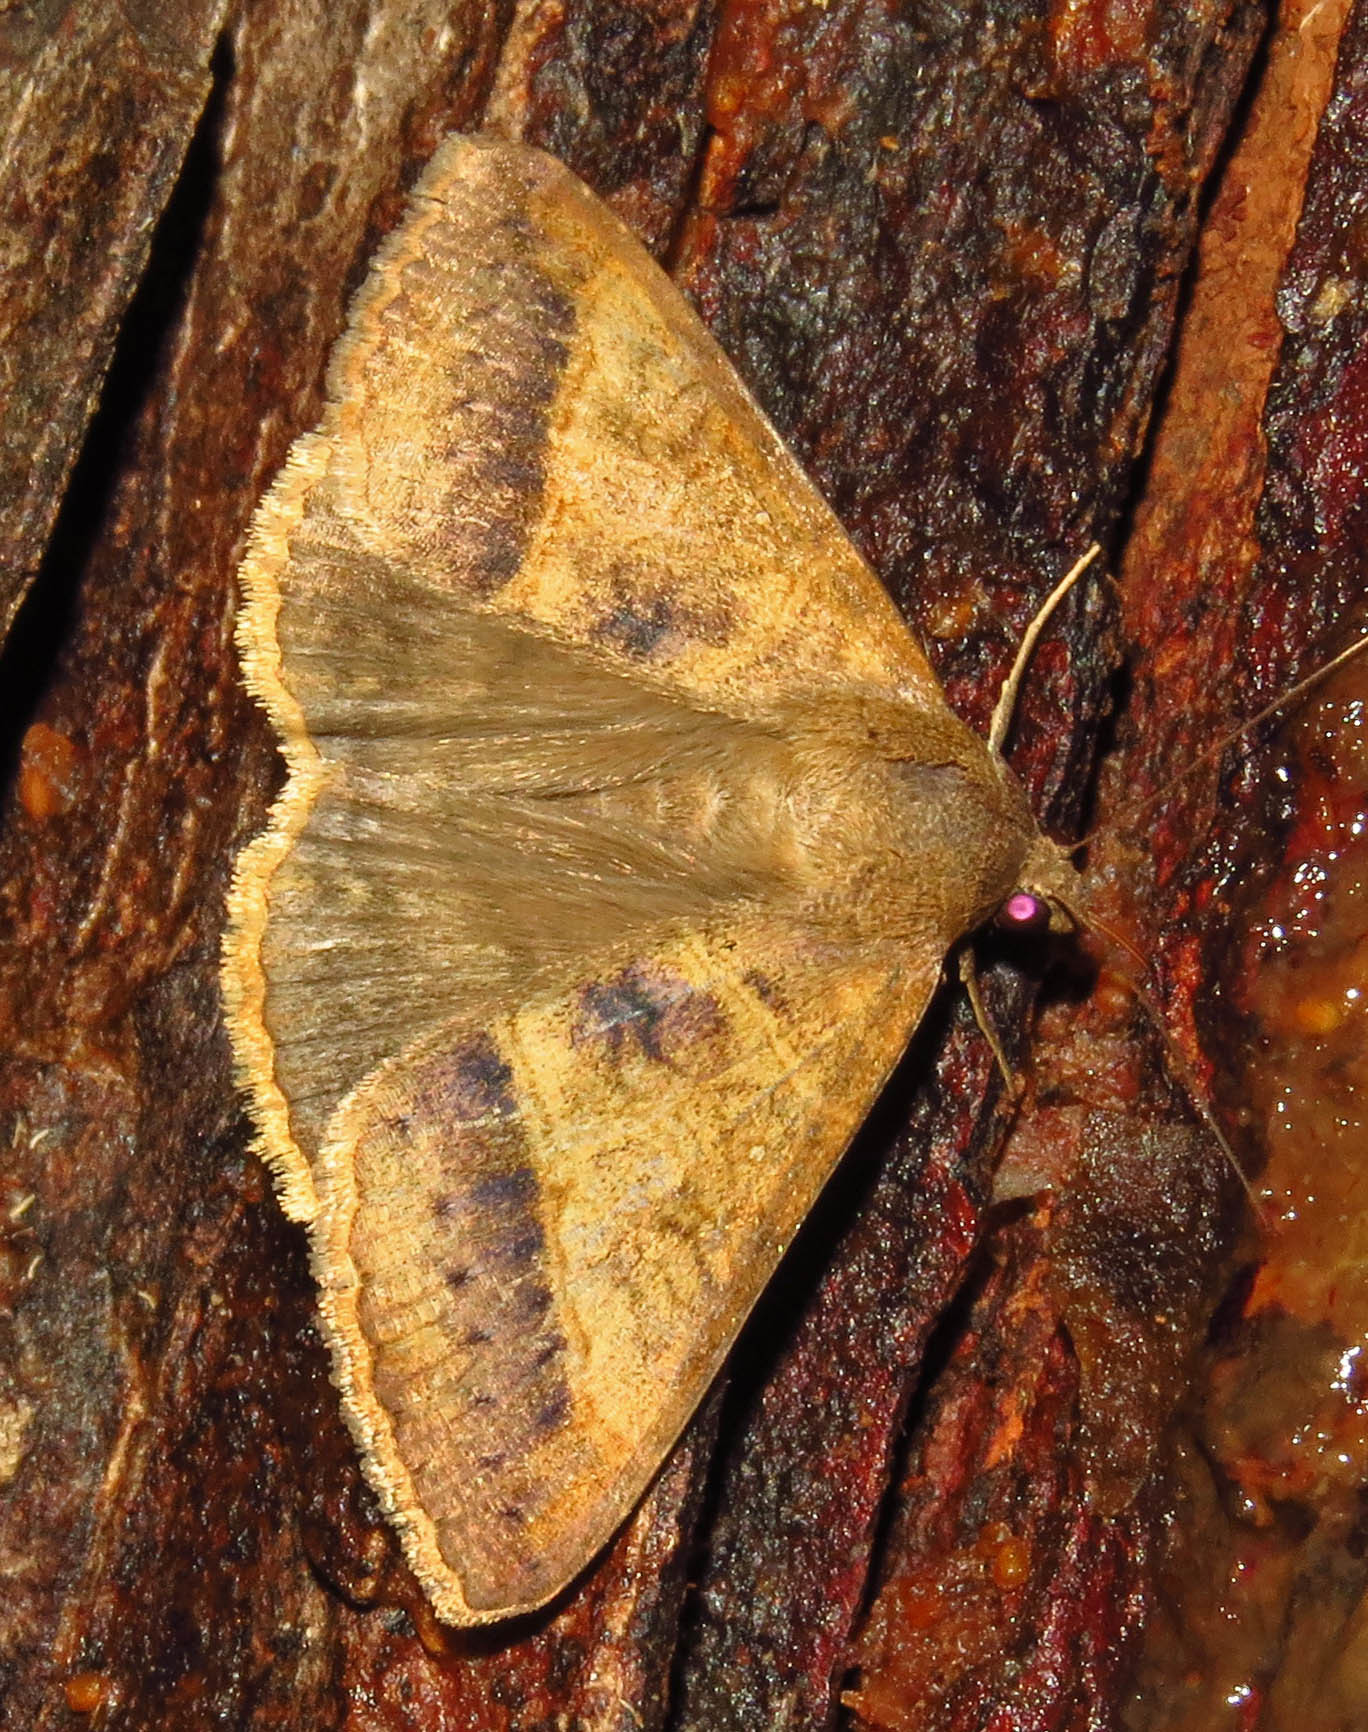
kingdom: Animalia
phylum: Arthropoda
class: Insecta
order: Lepidoptera
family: Erebidae
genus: Mocis
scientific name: Mocis latipes
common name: Striped grass looper
